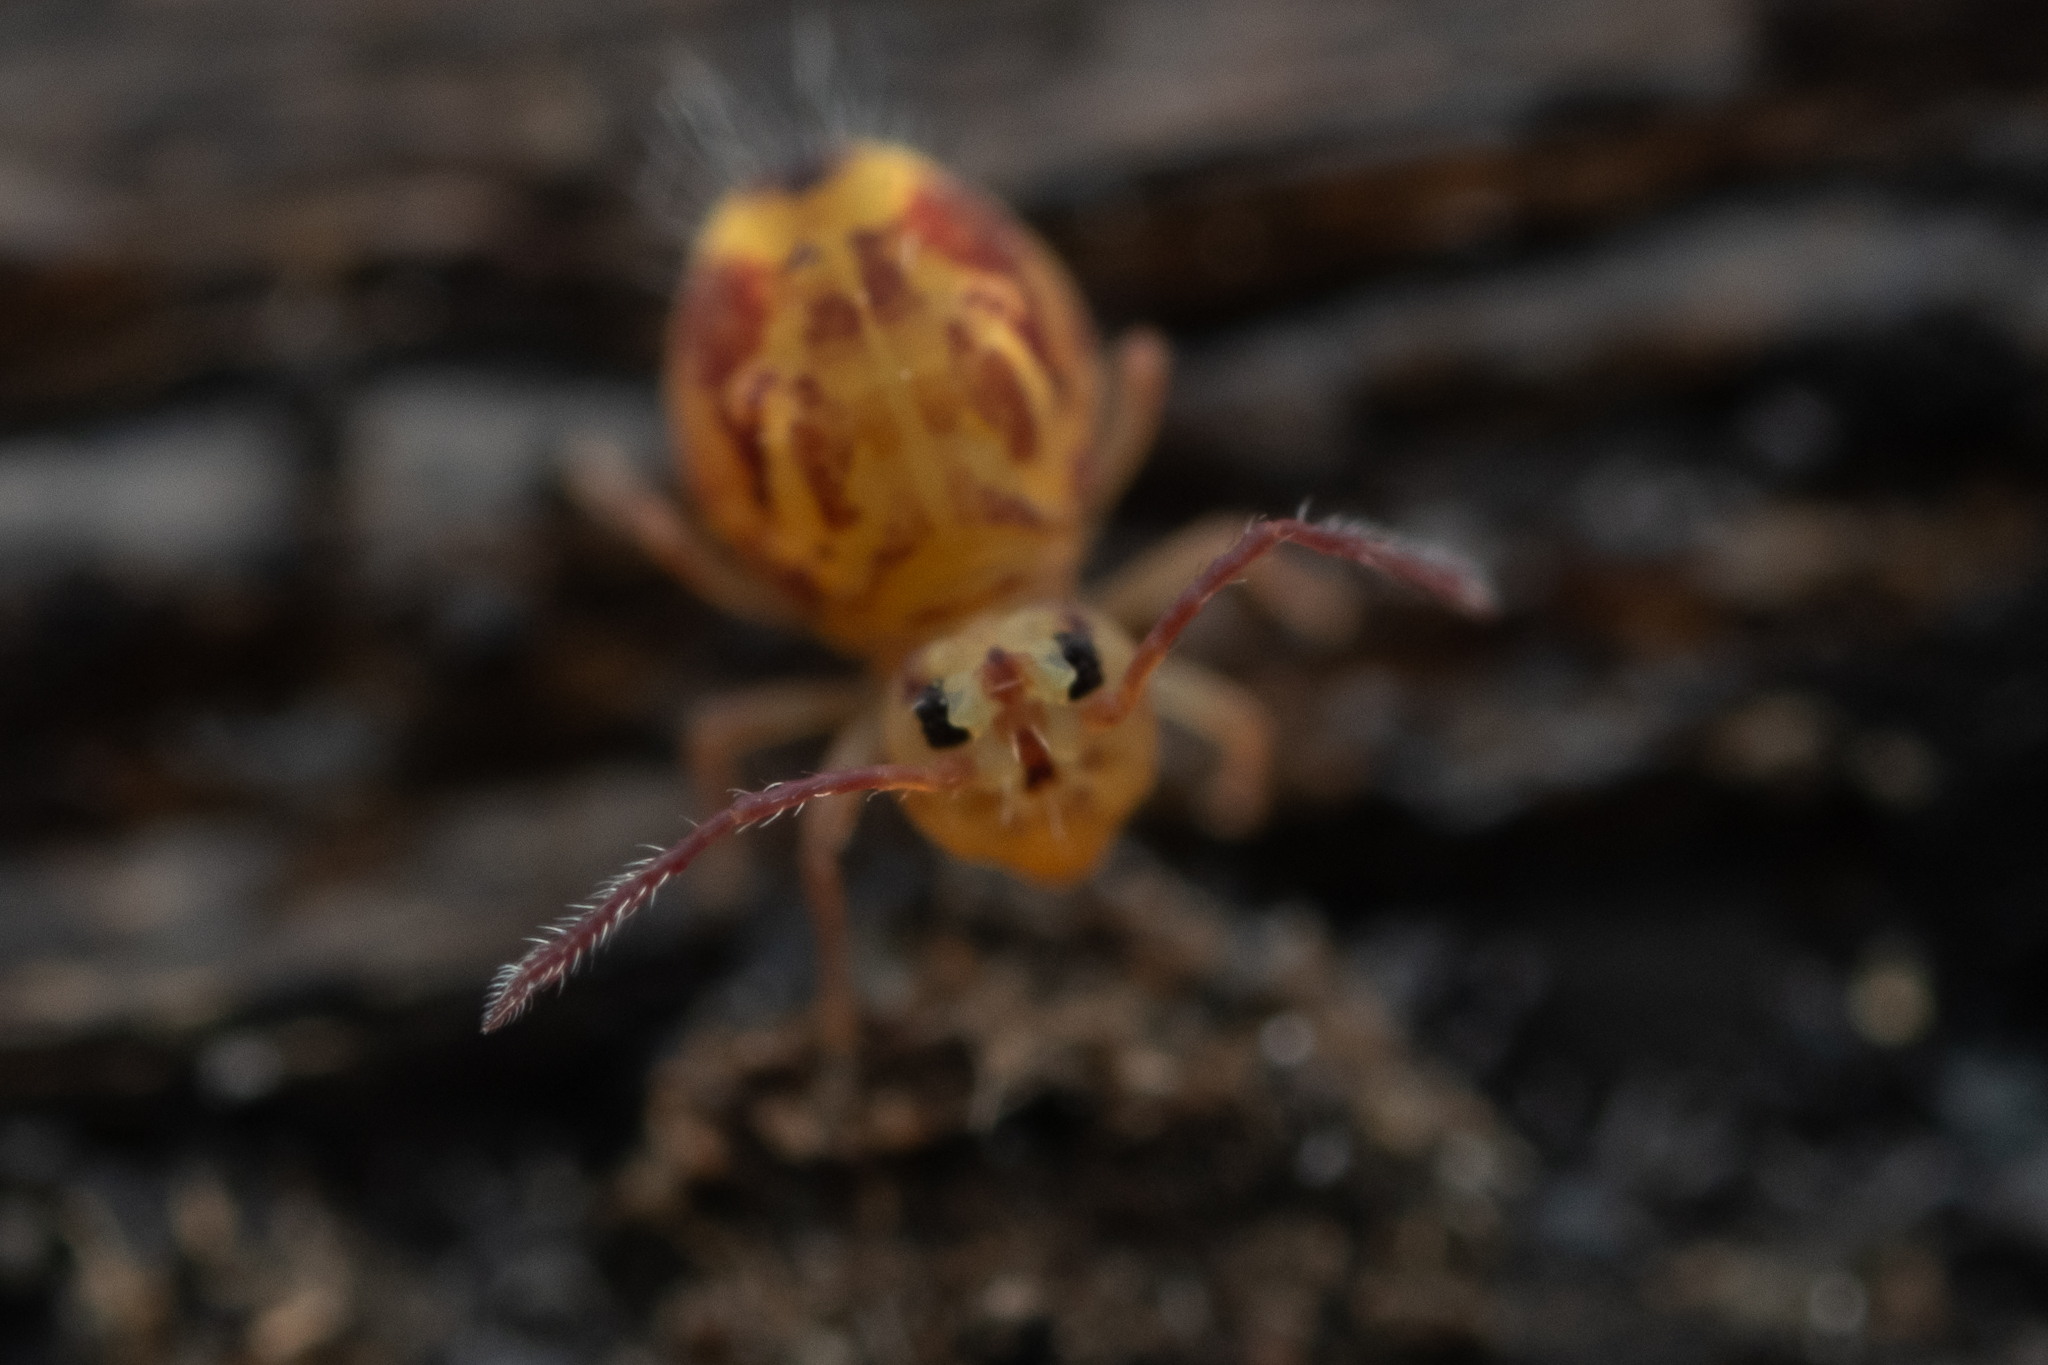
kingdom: Animalia
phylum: Arthropoda
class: Collembola
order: Symphypleona
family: Dicyrtomidae
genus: Dicyrtomina
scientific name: Dicyrtomina ornata
